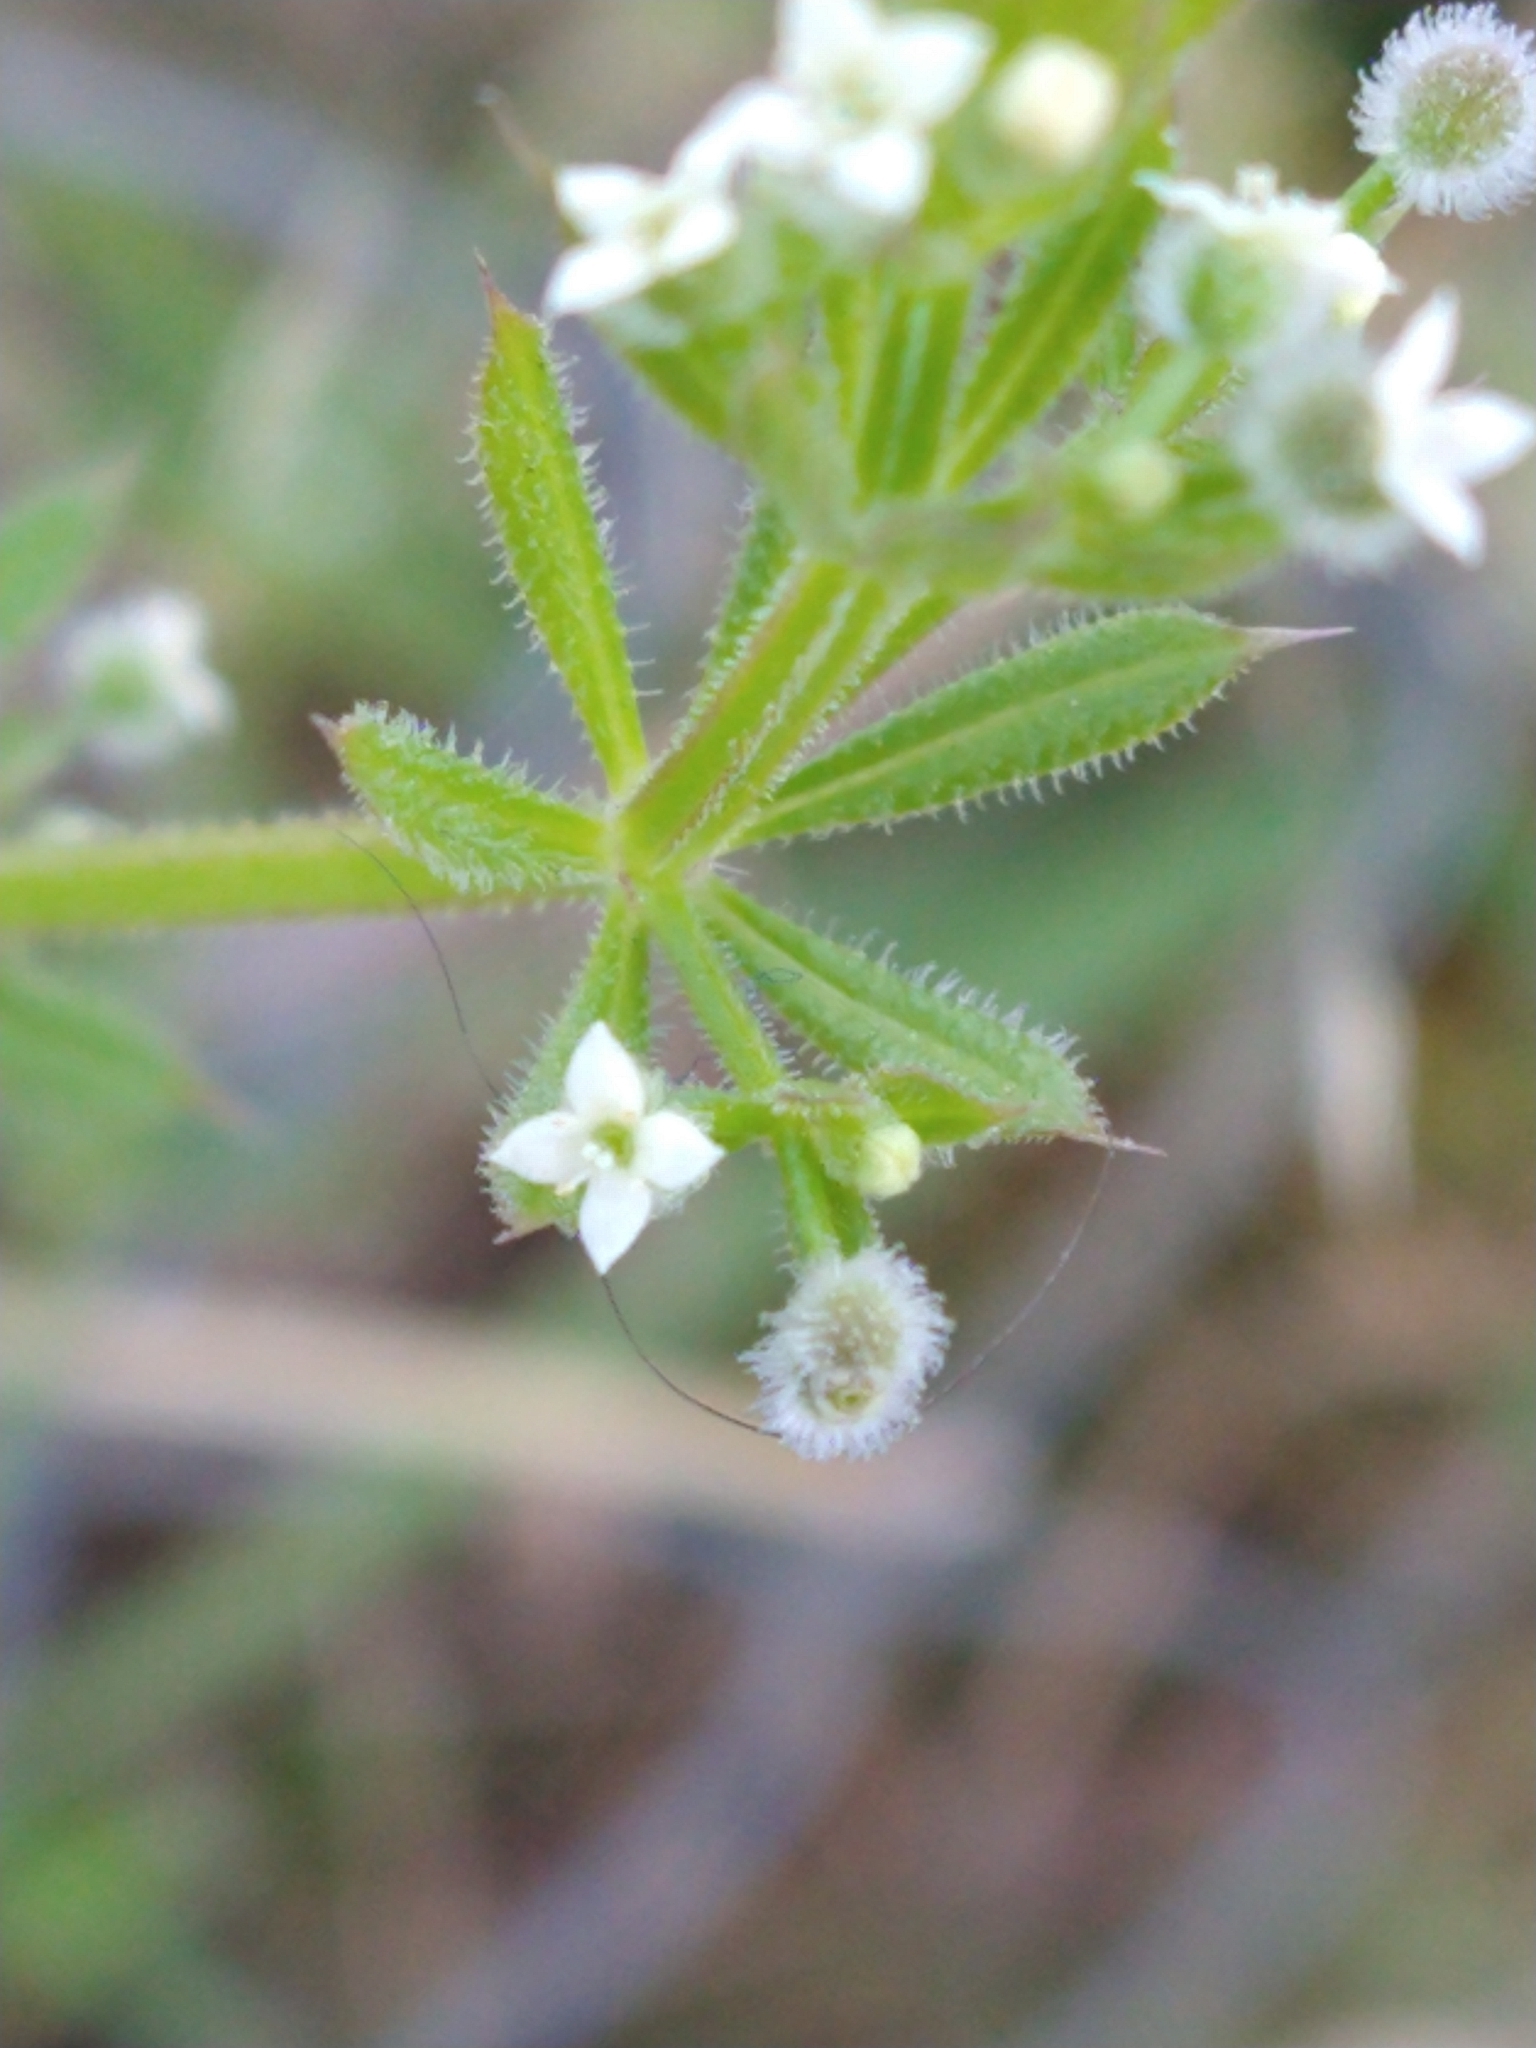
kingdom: Plantae
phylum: Tracheophyta
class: Magnoliopsida
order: Gentianales
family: Rubiaceae
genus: Galium
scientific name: Galium aparine
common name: Cleavers
